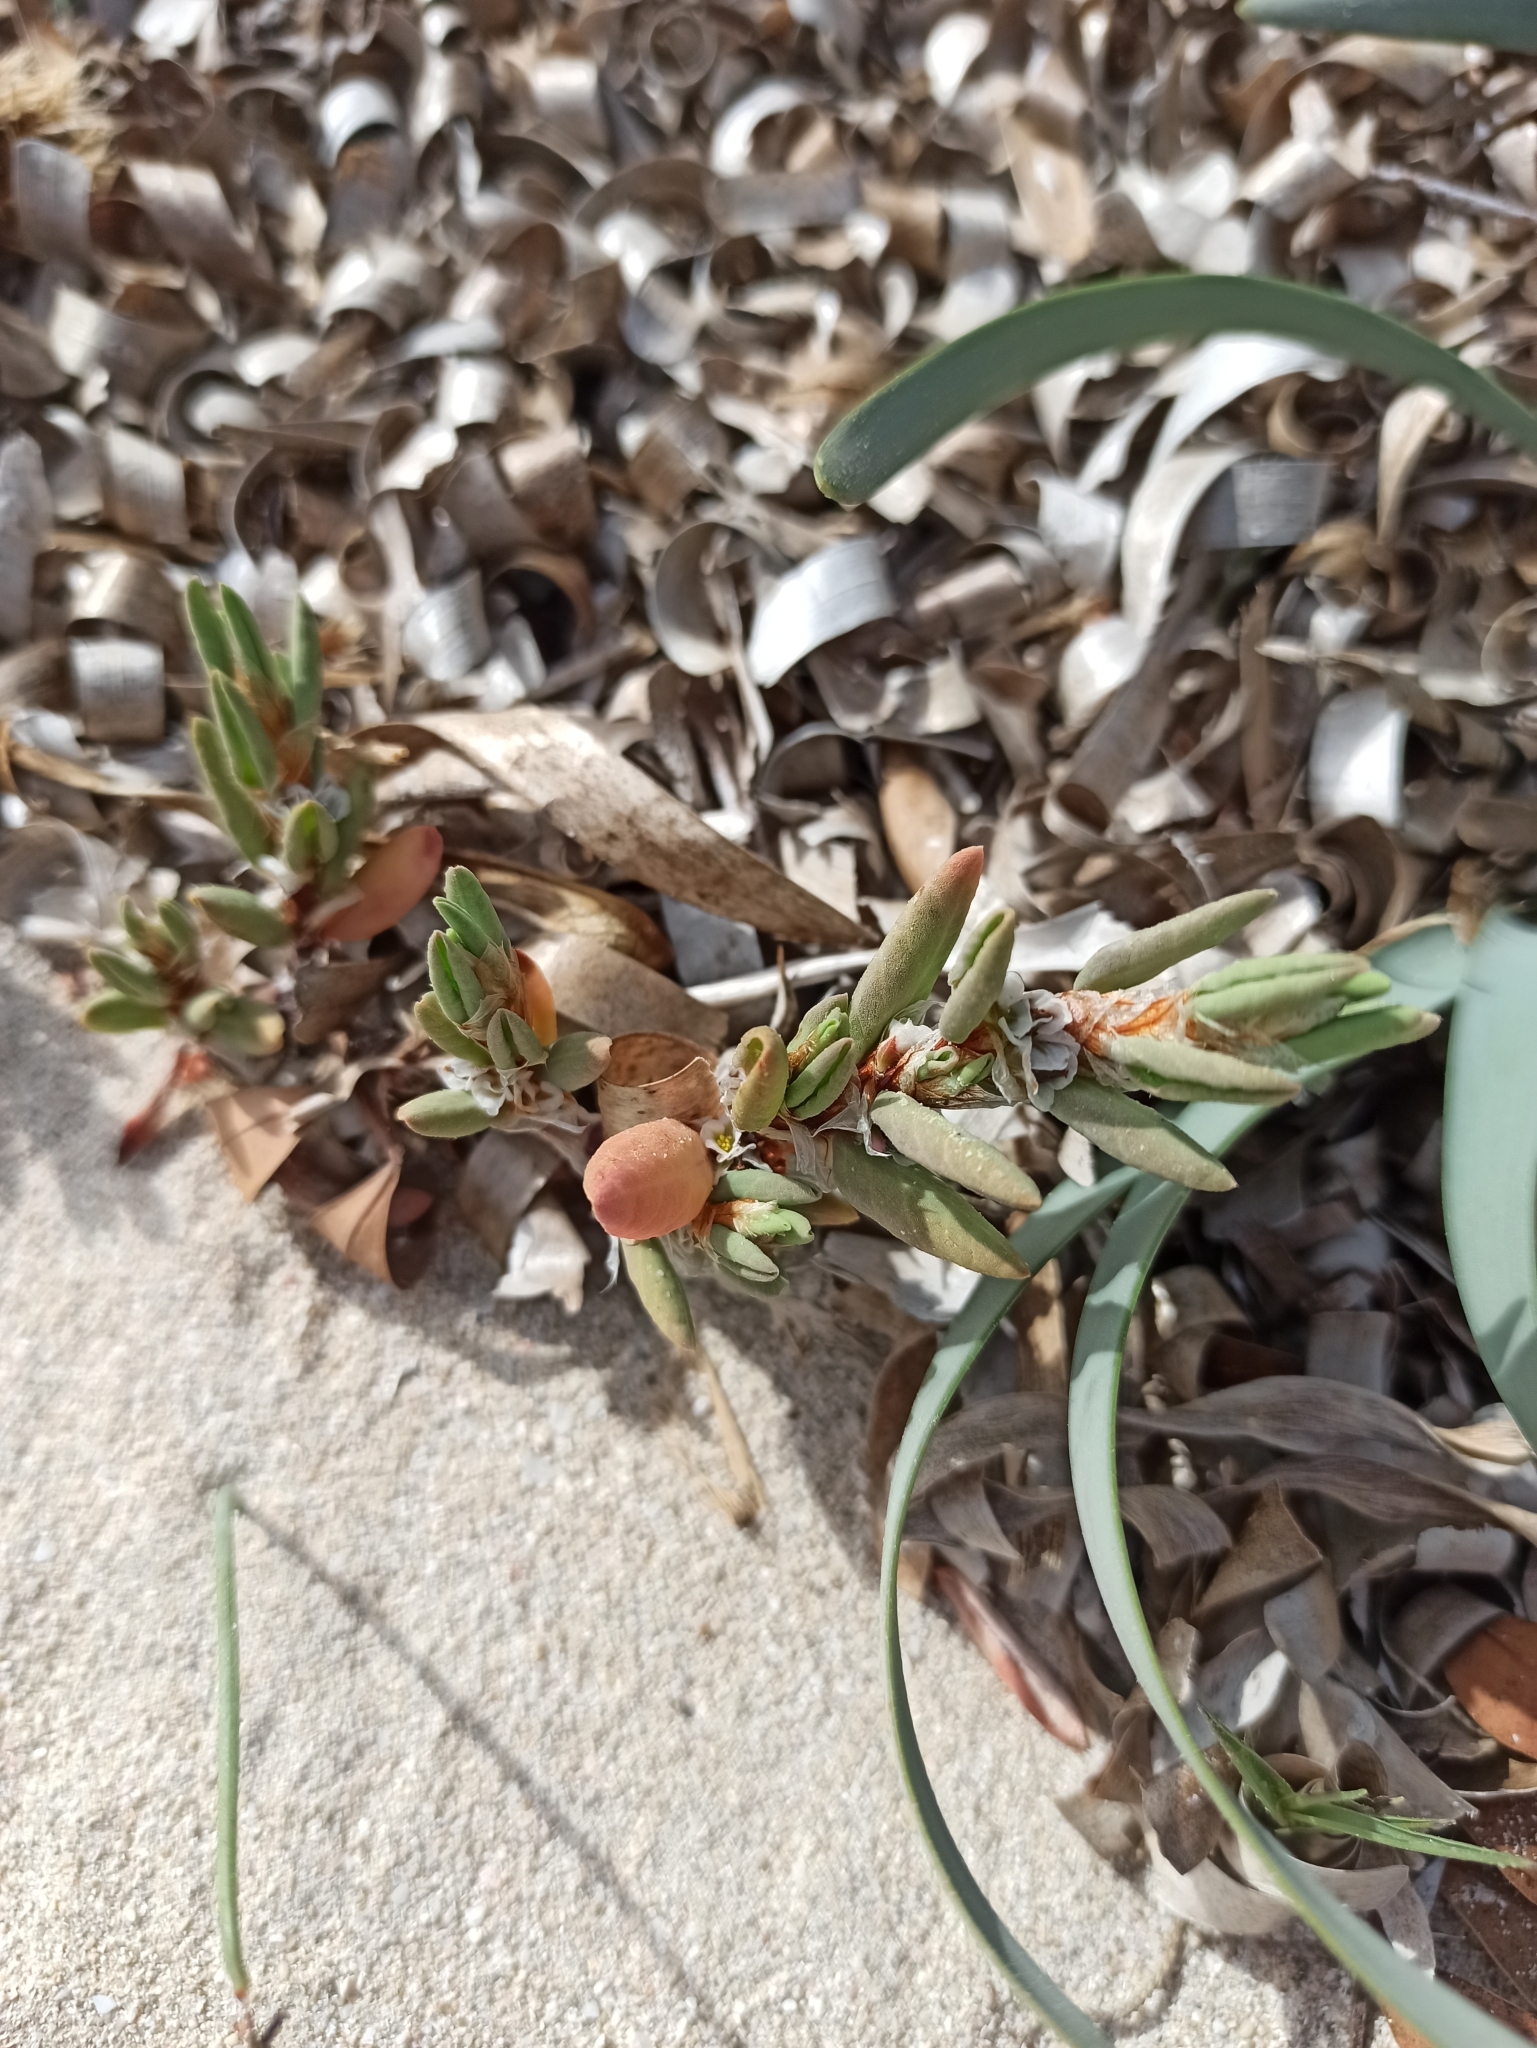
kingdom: Plantae
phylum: Tracheophyta
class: Magnoliopsida
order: Caryophyllales
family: Polygonaceae
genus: Polygonum
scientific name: Polygonum maritimum
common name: Sea knotgrass
